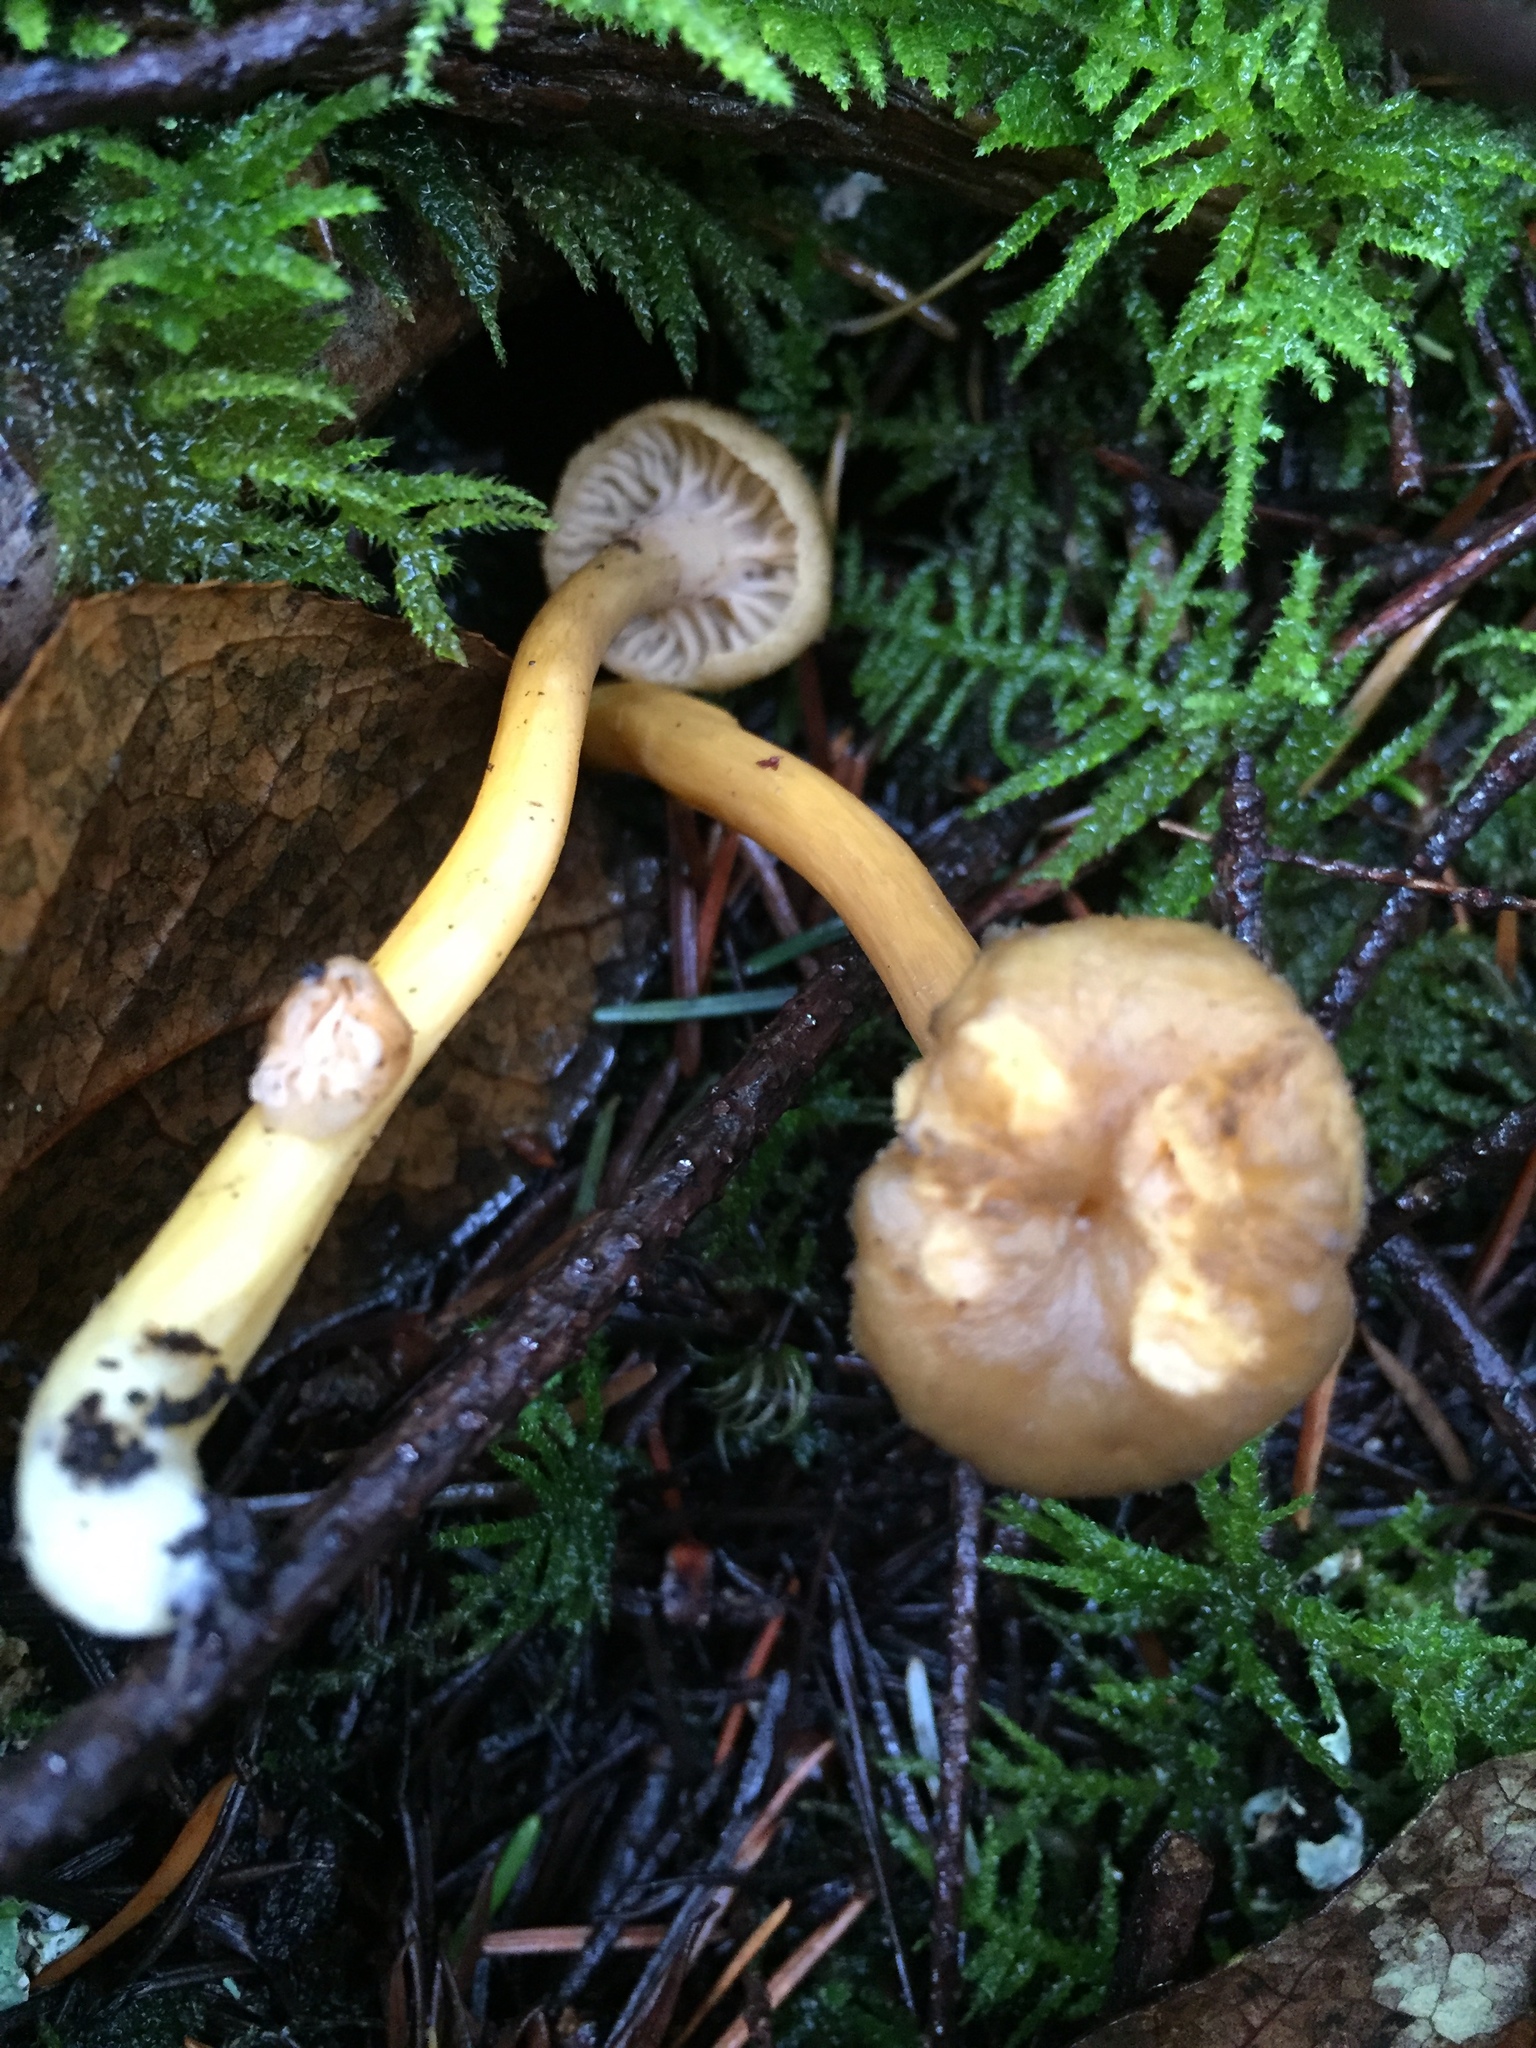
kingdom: Fungi
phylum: Basidiomycota
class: Agaricomycetes
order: Cantharellales
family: Hydnaceae
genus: Craterellus
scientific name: Craterellus tubaeformis
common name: Yellowfoot
